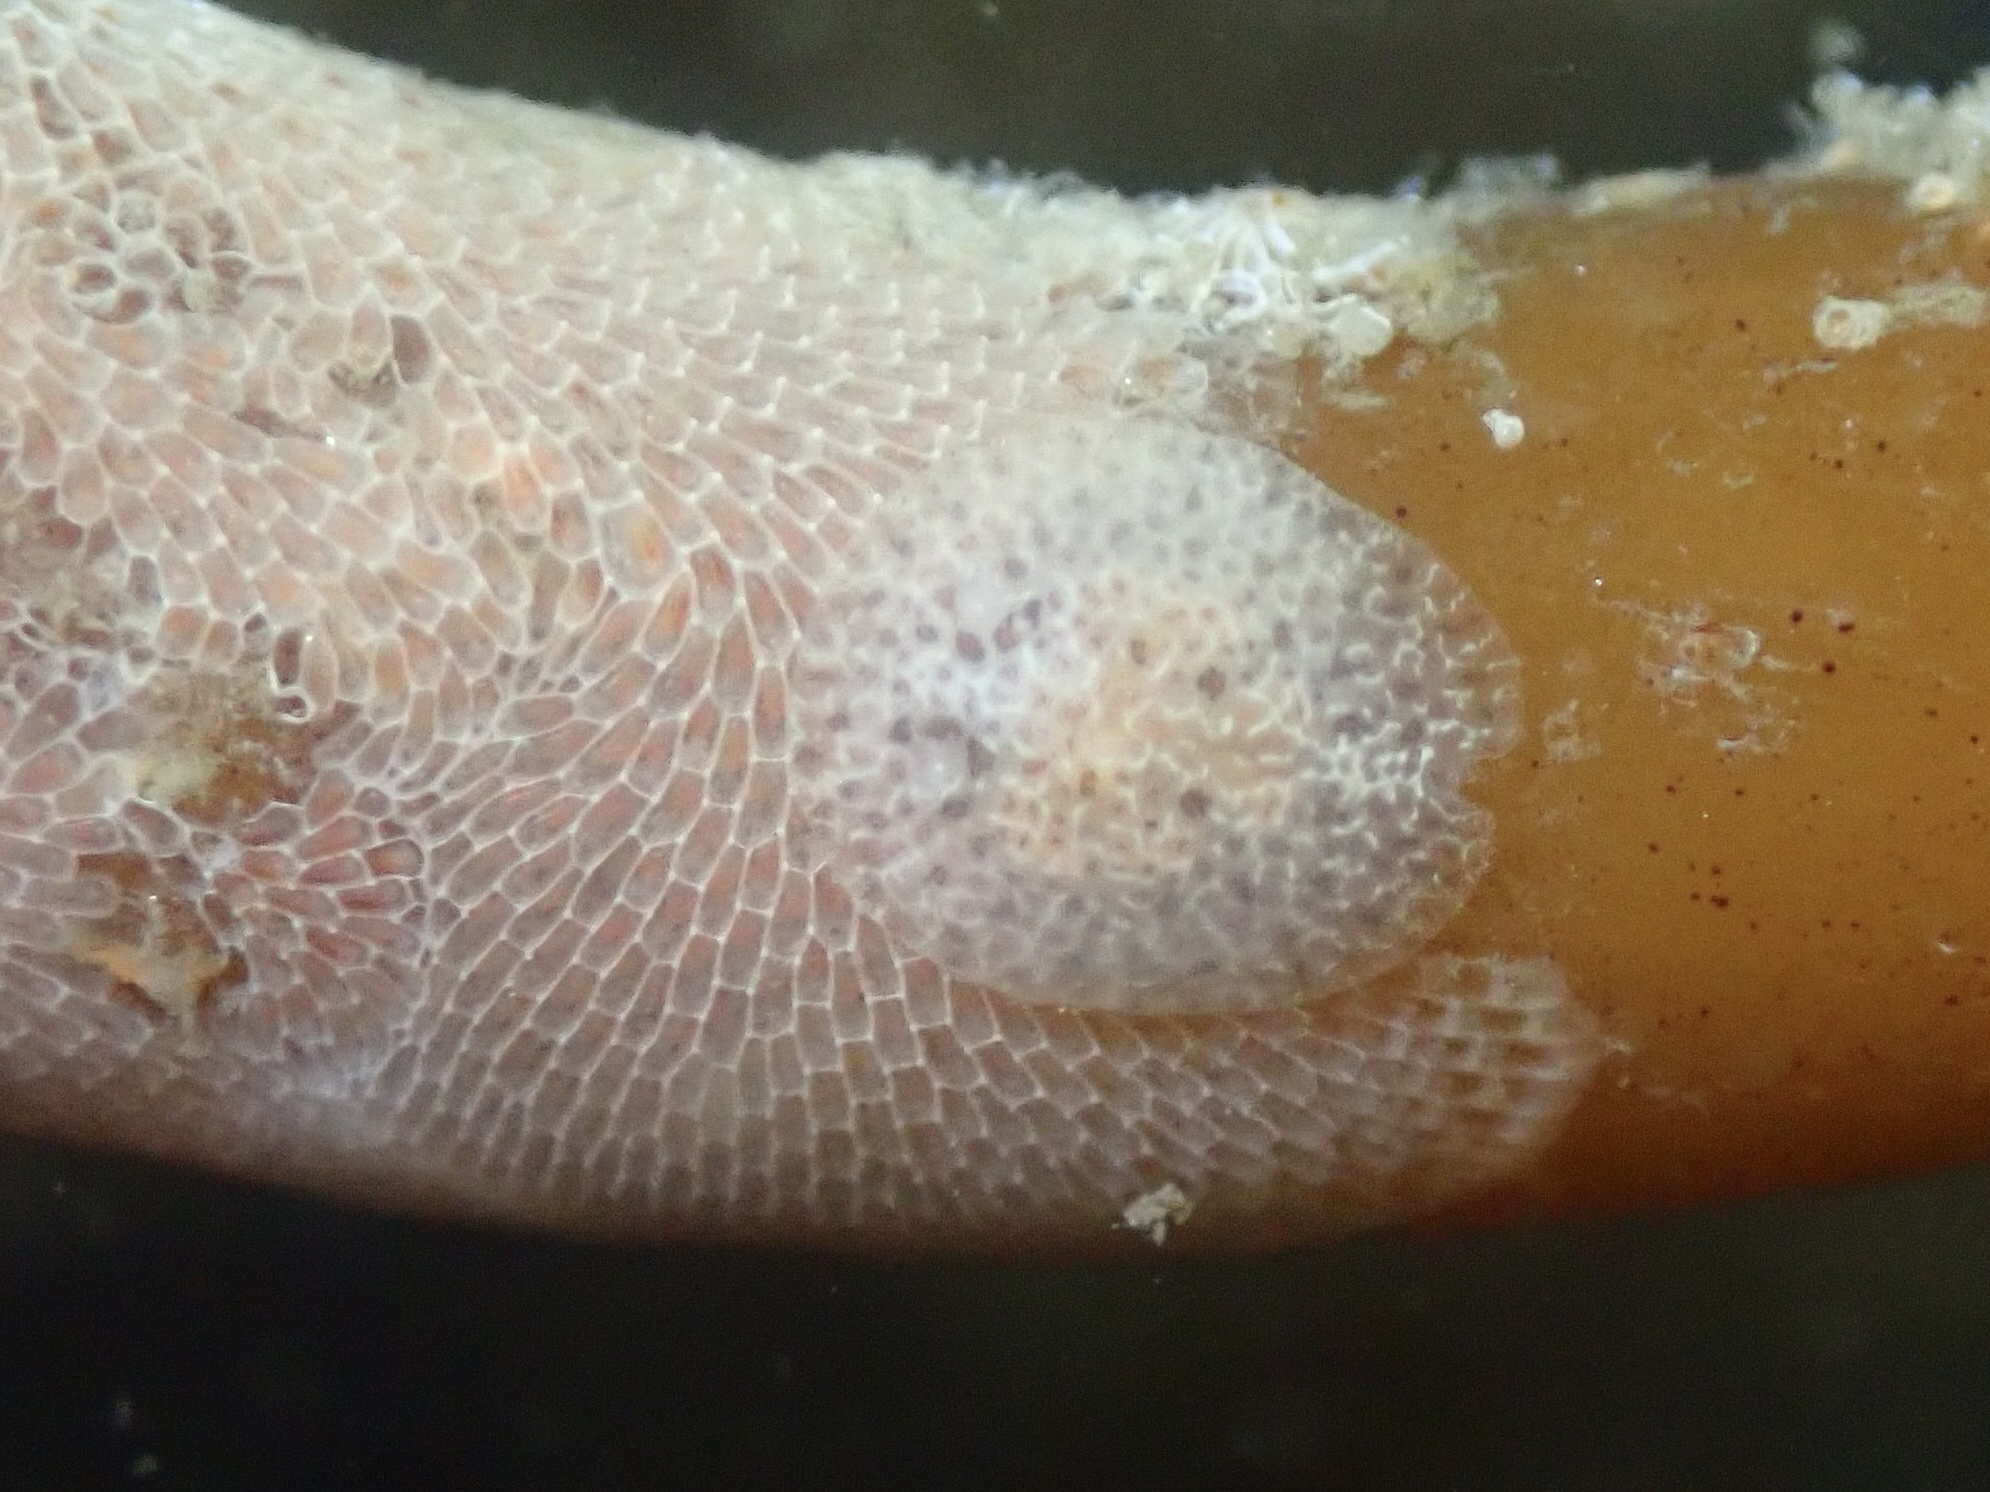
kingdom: Animalia
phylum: Mollusca
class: Gastropoda
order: Nudibranchia
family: Corambidae
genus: Corambe
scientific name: Corambe pacifica
